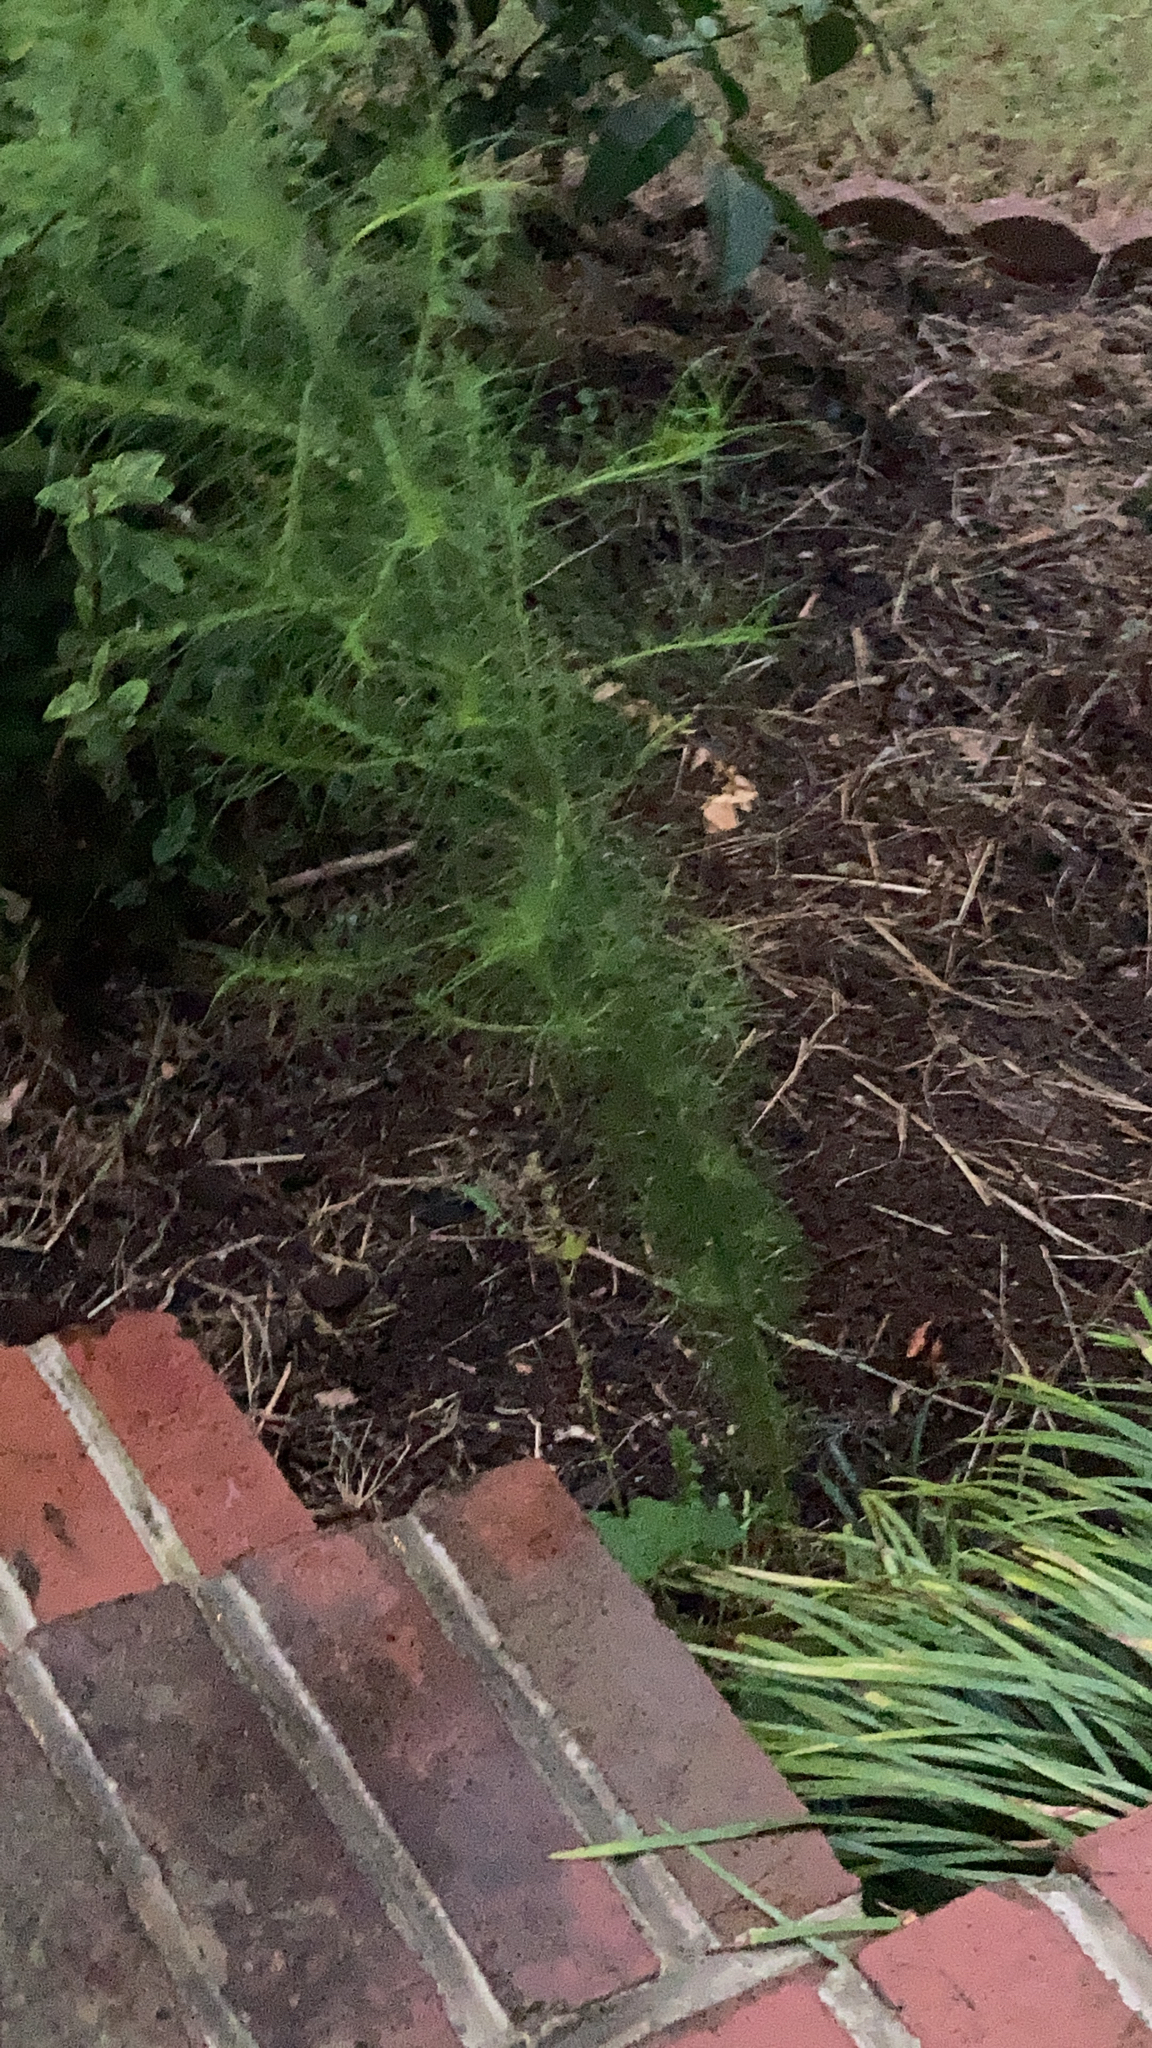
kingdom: Plantae
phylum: Tracheophyta
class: Magnoliopsida
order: Asterales
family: Asteraceae
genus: Eupatorium
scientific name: Eupatorium capillifolium
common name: Dog-fennel
